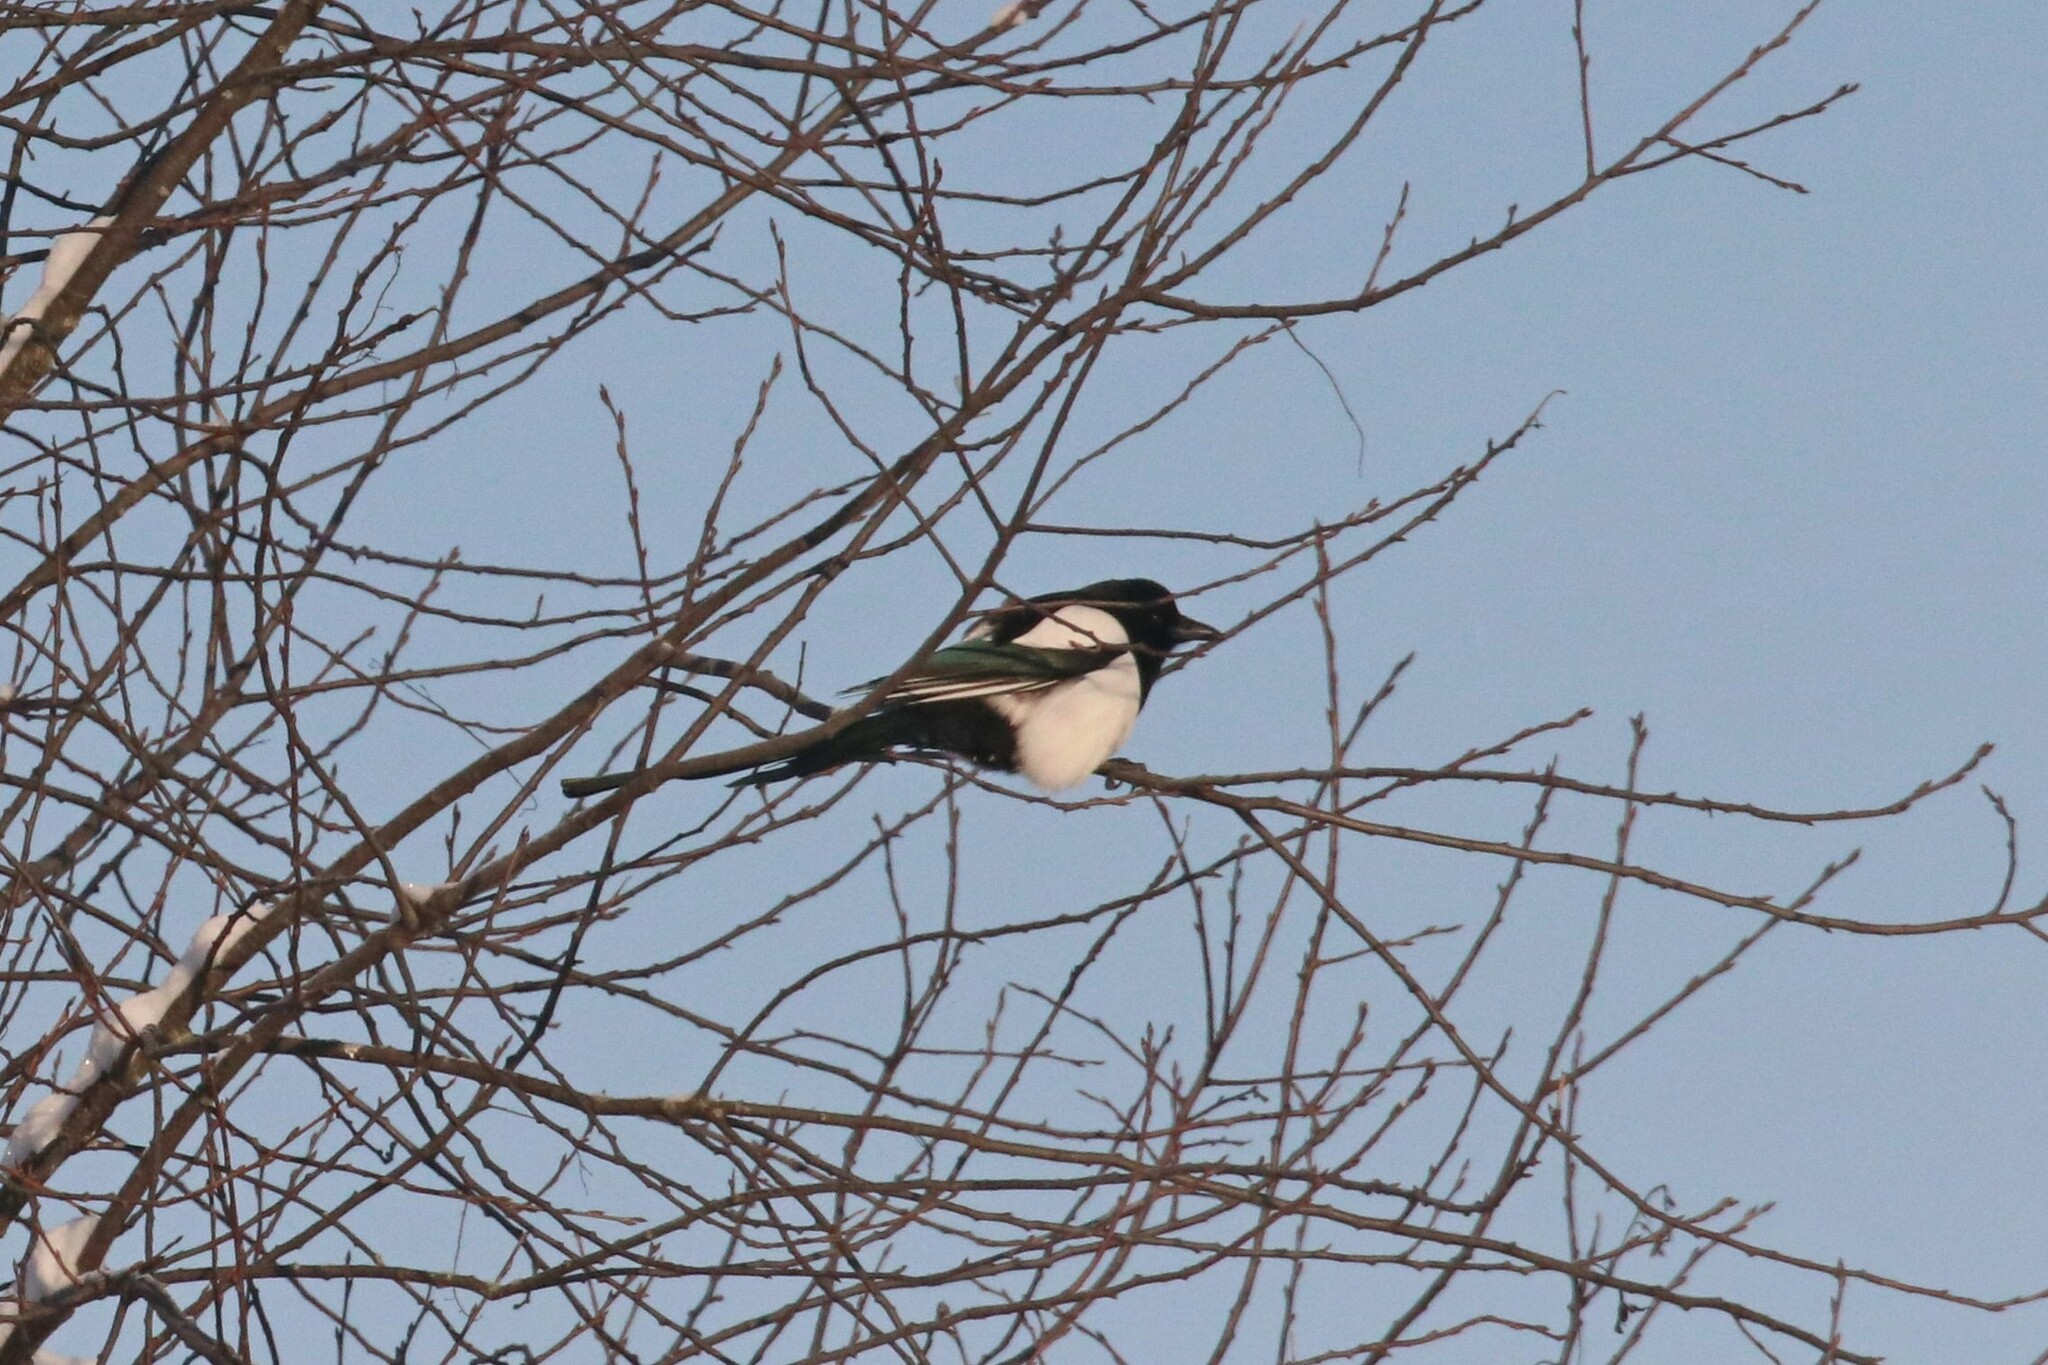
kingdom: Animalia
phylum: Chordata
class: Aves
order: Passeriformes
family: Corvidae
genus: Pica
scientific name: Pica pica
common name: Eurasian magpie
